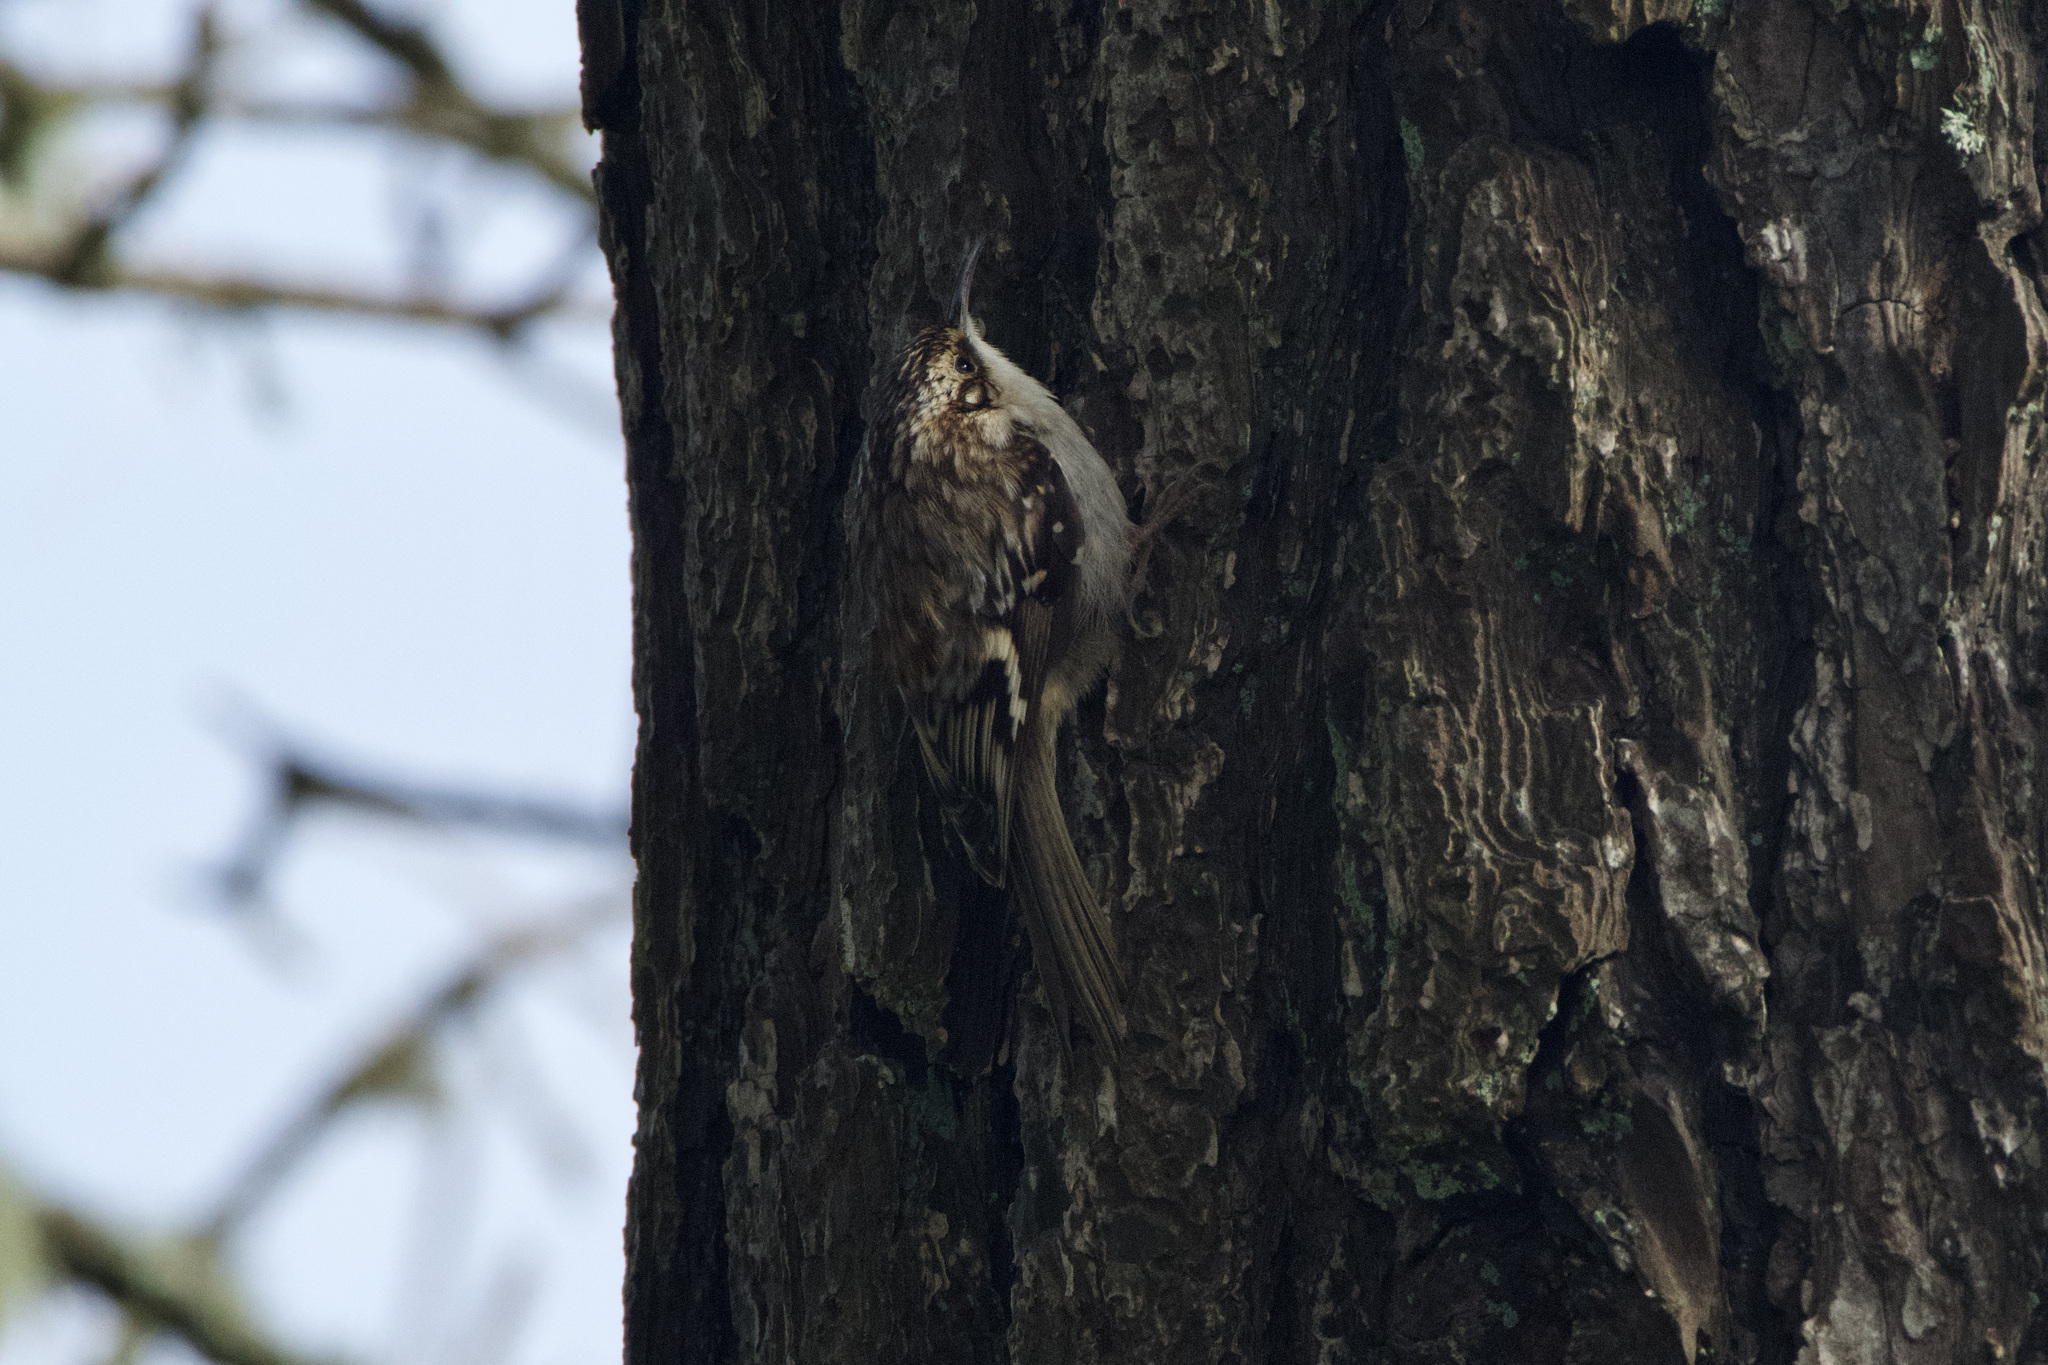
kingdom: Animalia
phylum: Chordata
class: Aves
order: Passeriformes
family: Certhiidae
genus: Certhia
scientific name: Certhia americana
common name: Brown creeper
